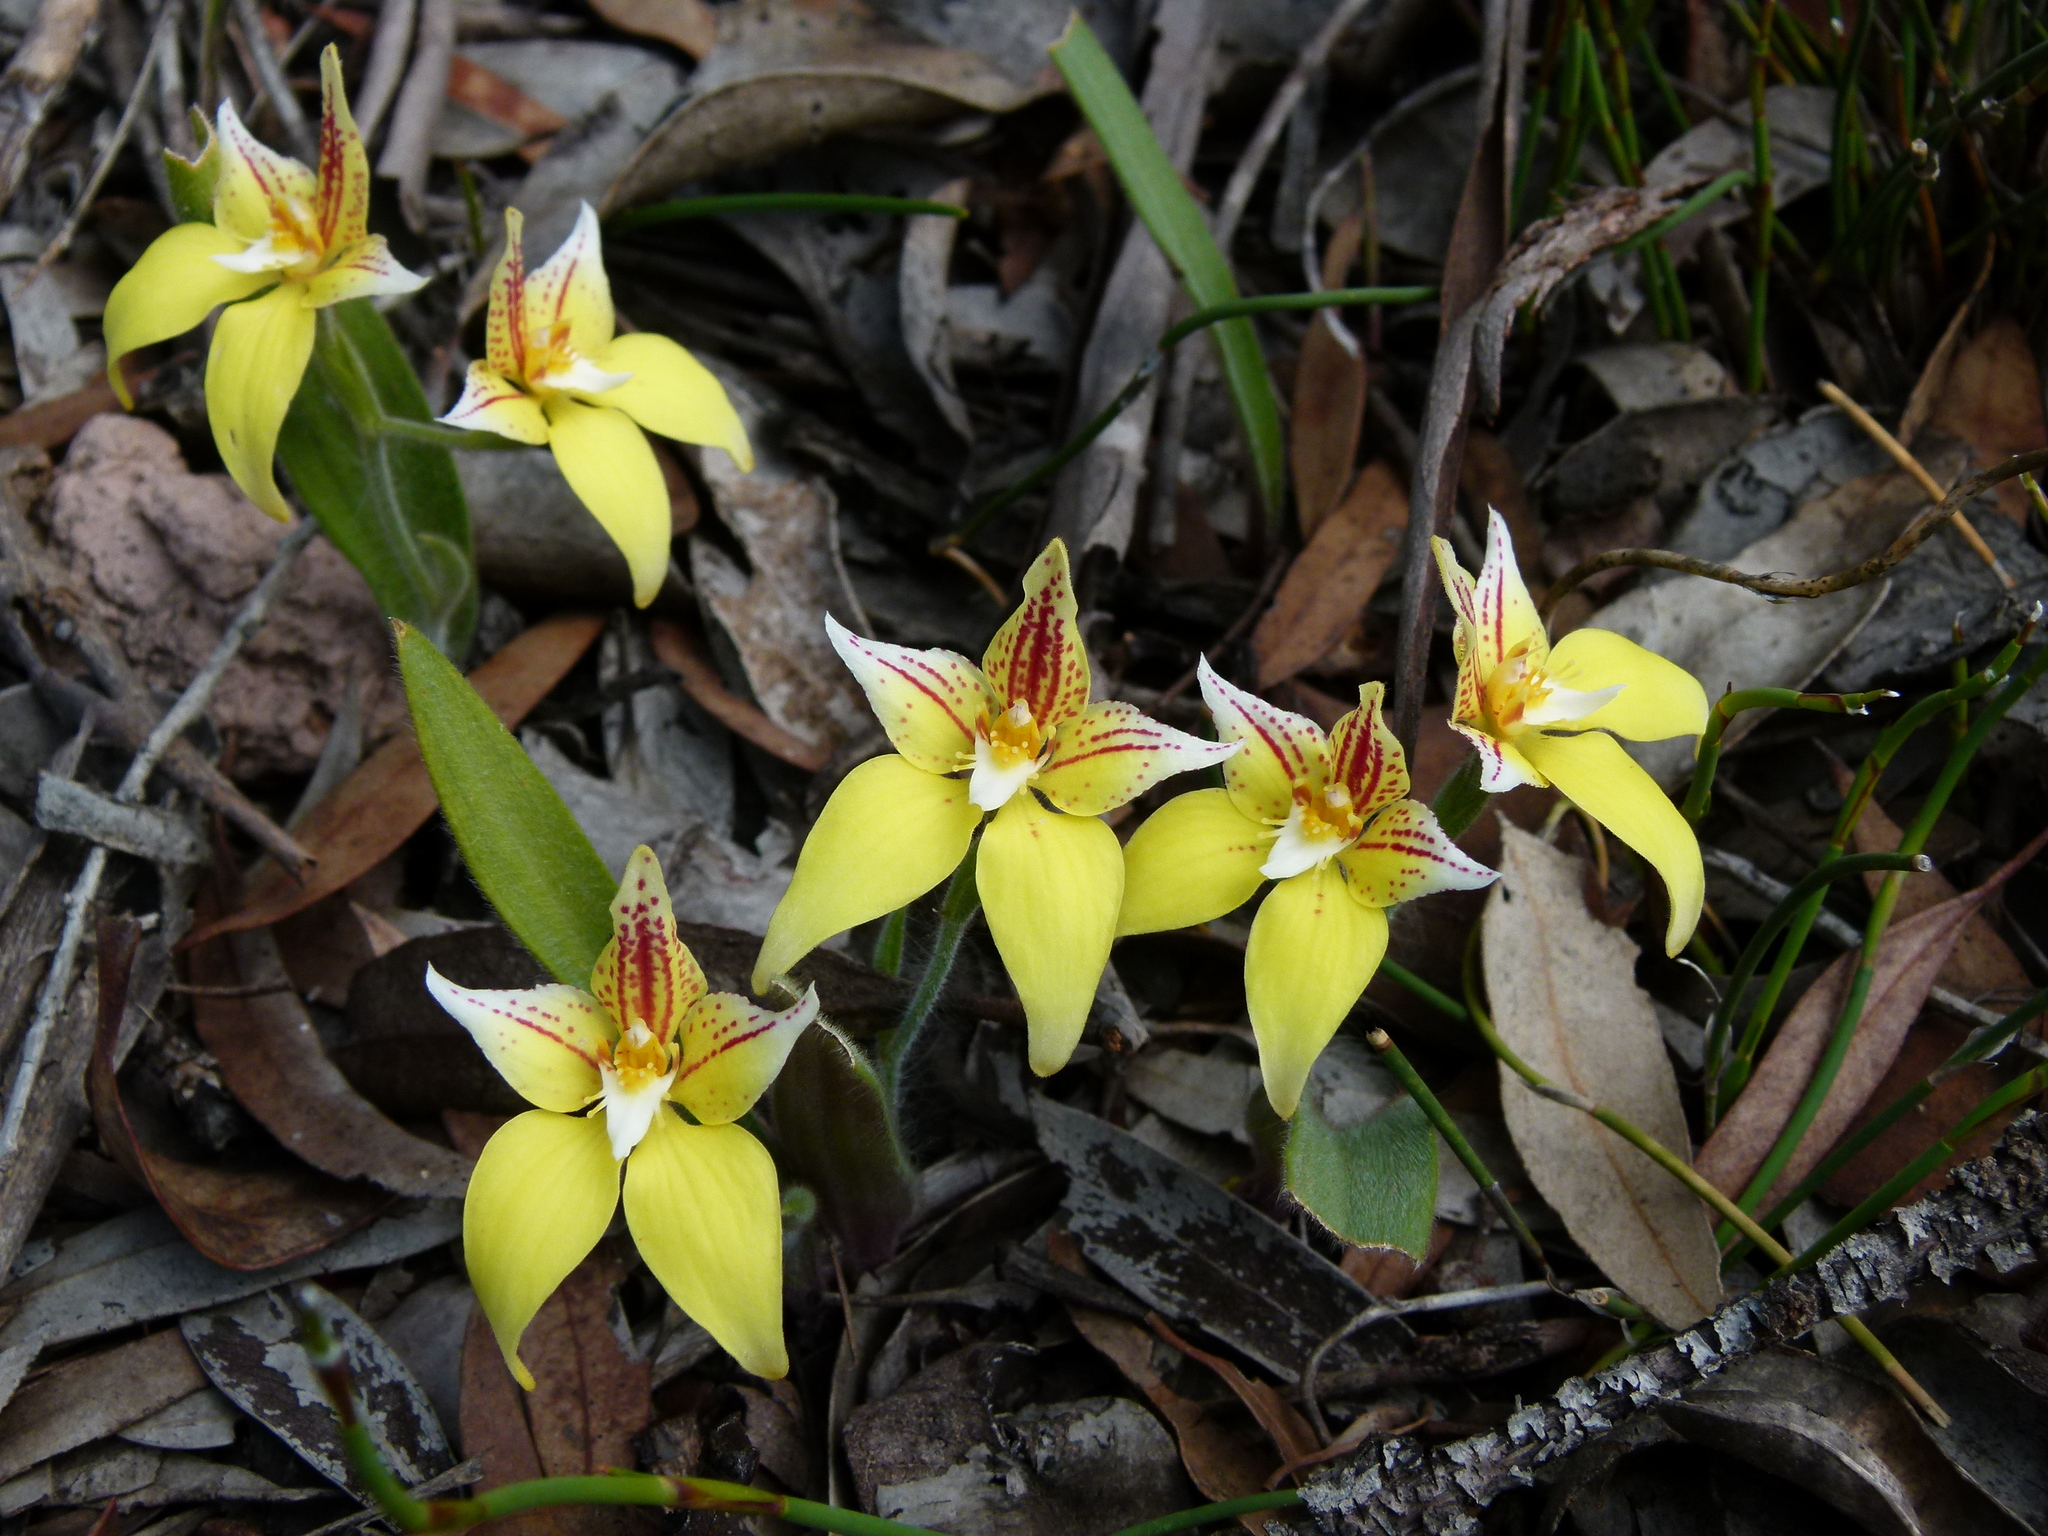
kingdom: Plantae
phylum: Tracheophyta
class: Liliopsida
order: Asparagales
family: Orchidaceae
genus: Caladenia
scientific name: Caladenia flava
